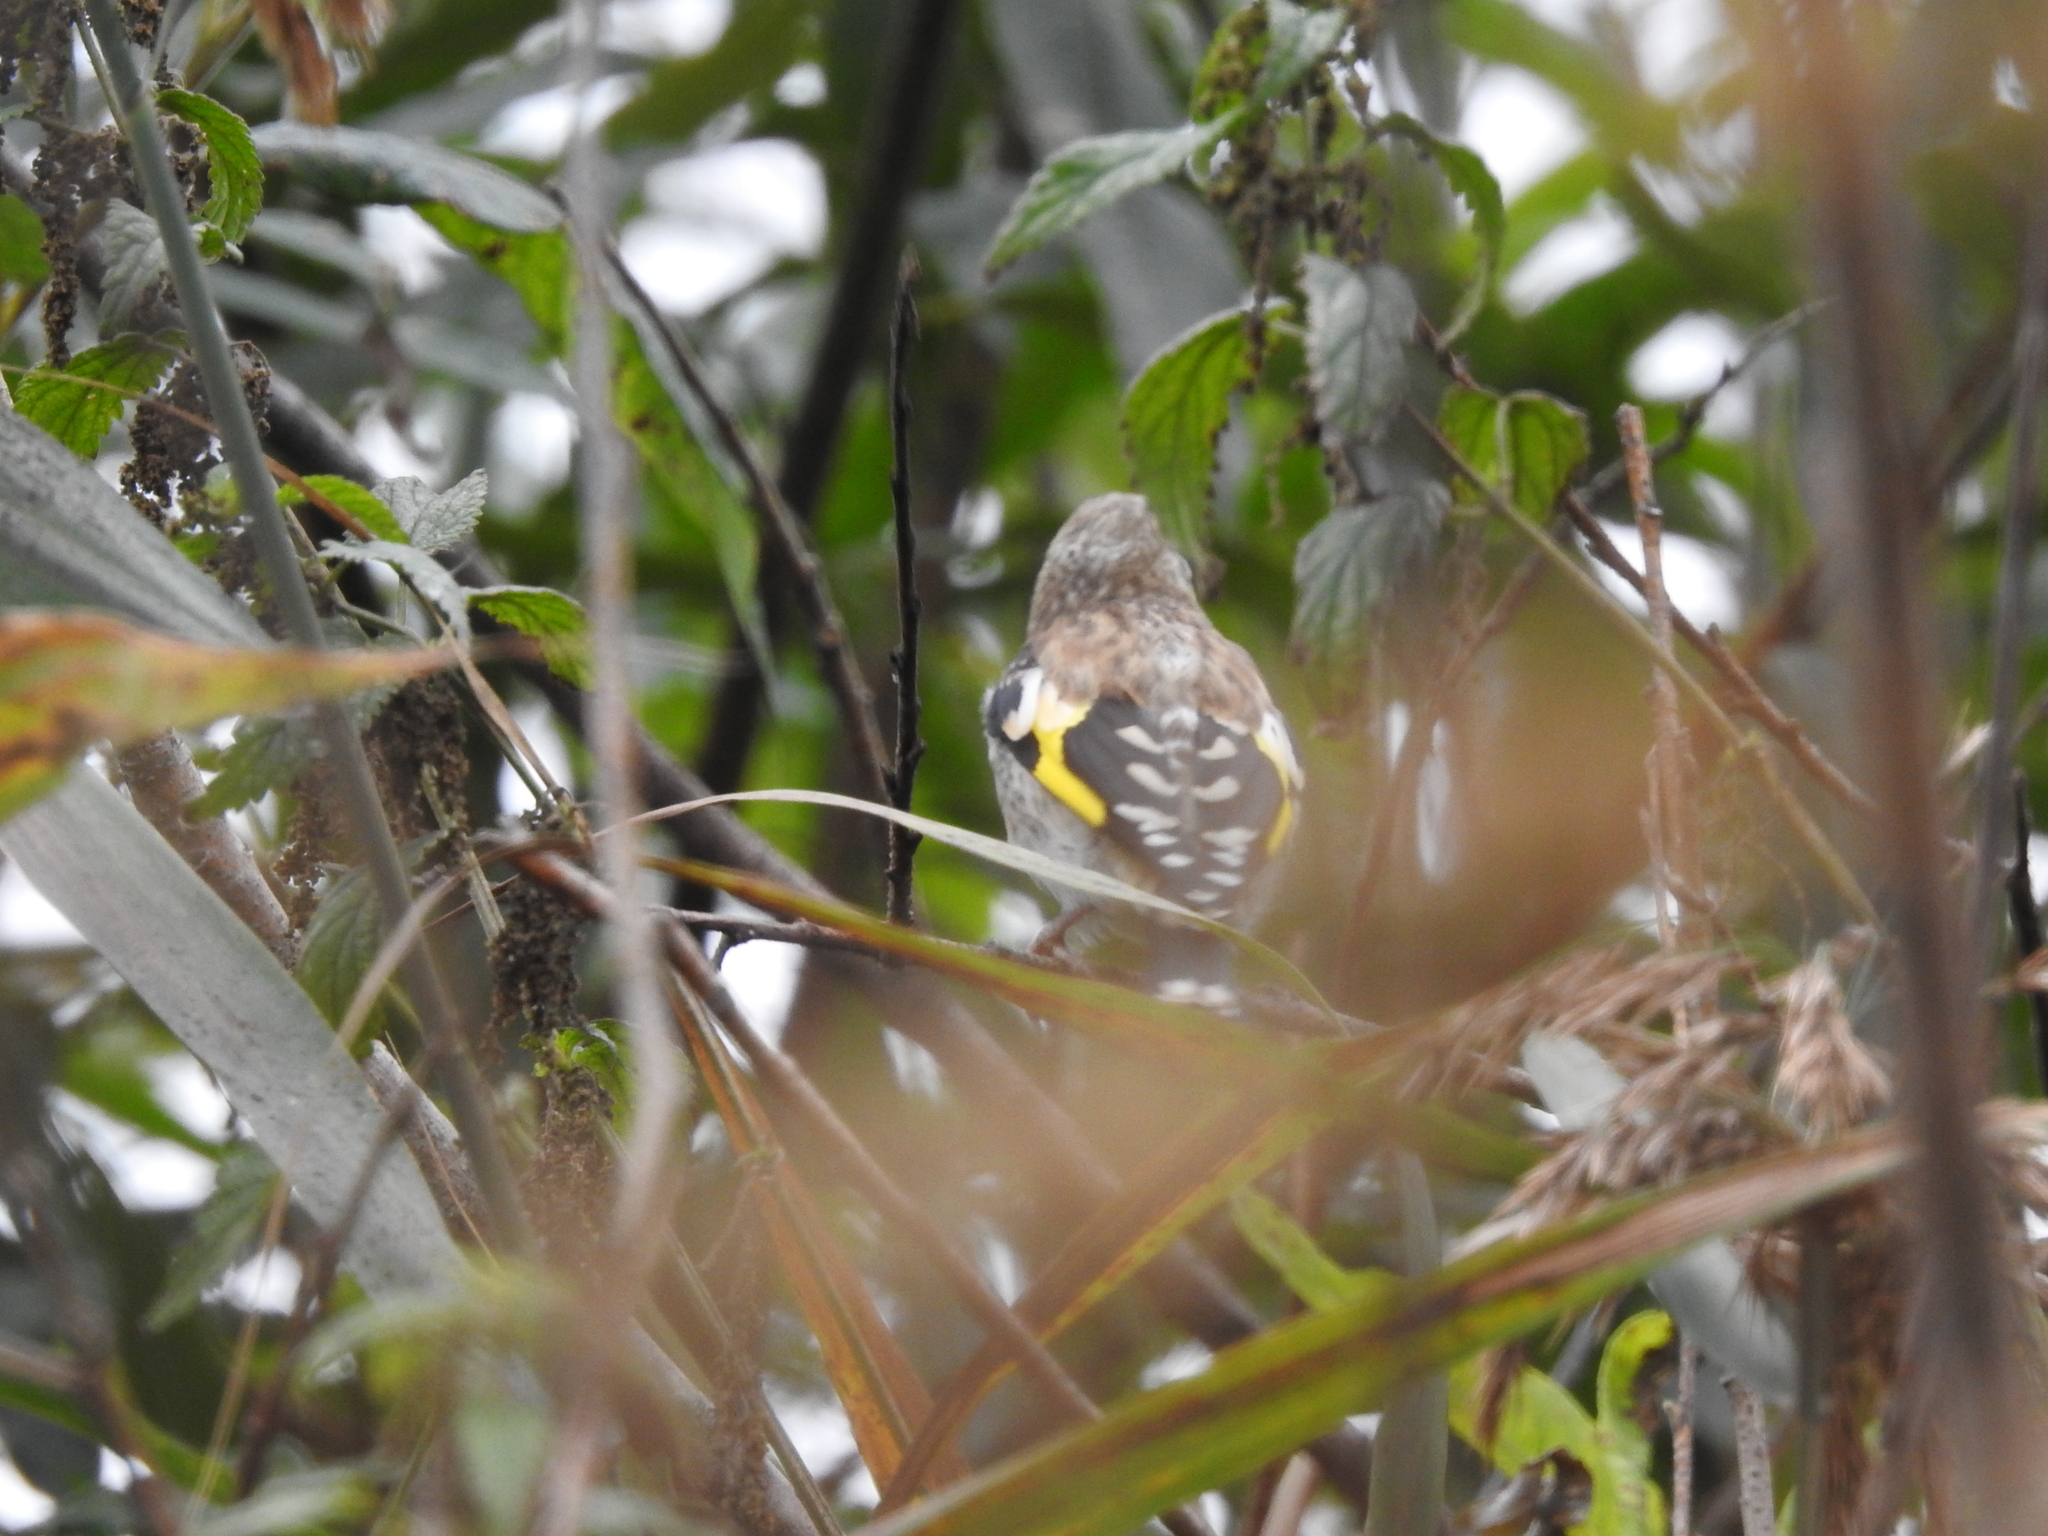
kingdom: Animalia
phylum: Chordata
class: Aves
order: Passeriformes
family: Fringillidae
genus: Carduelis
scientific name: Carduelis carduelis
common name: European goldfinch
